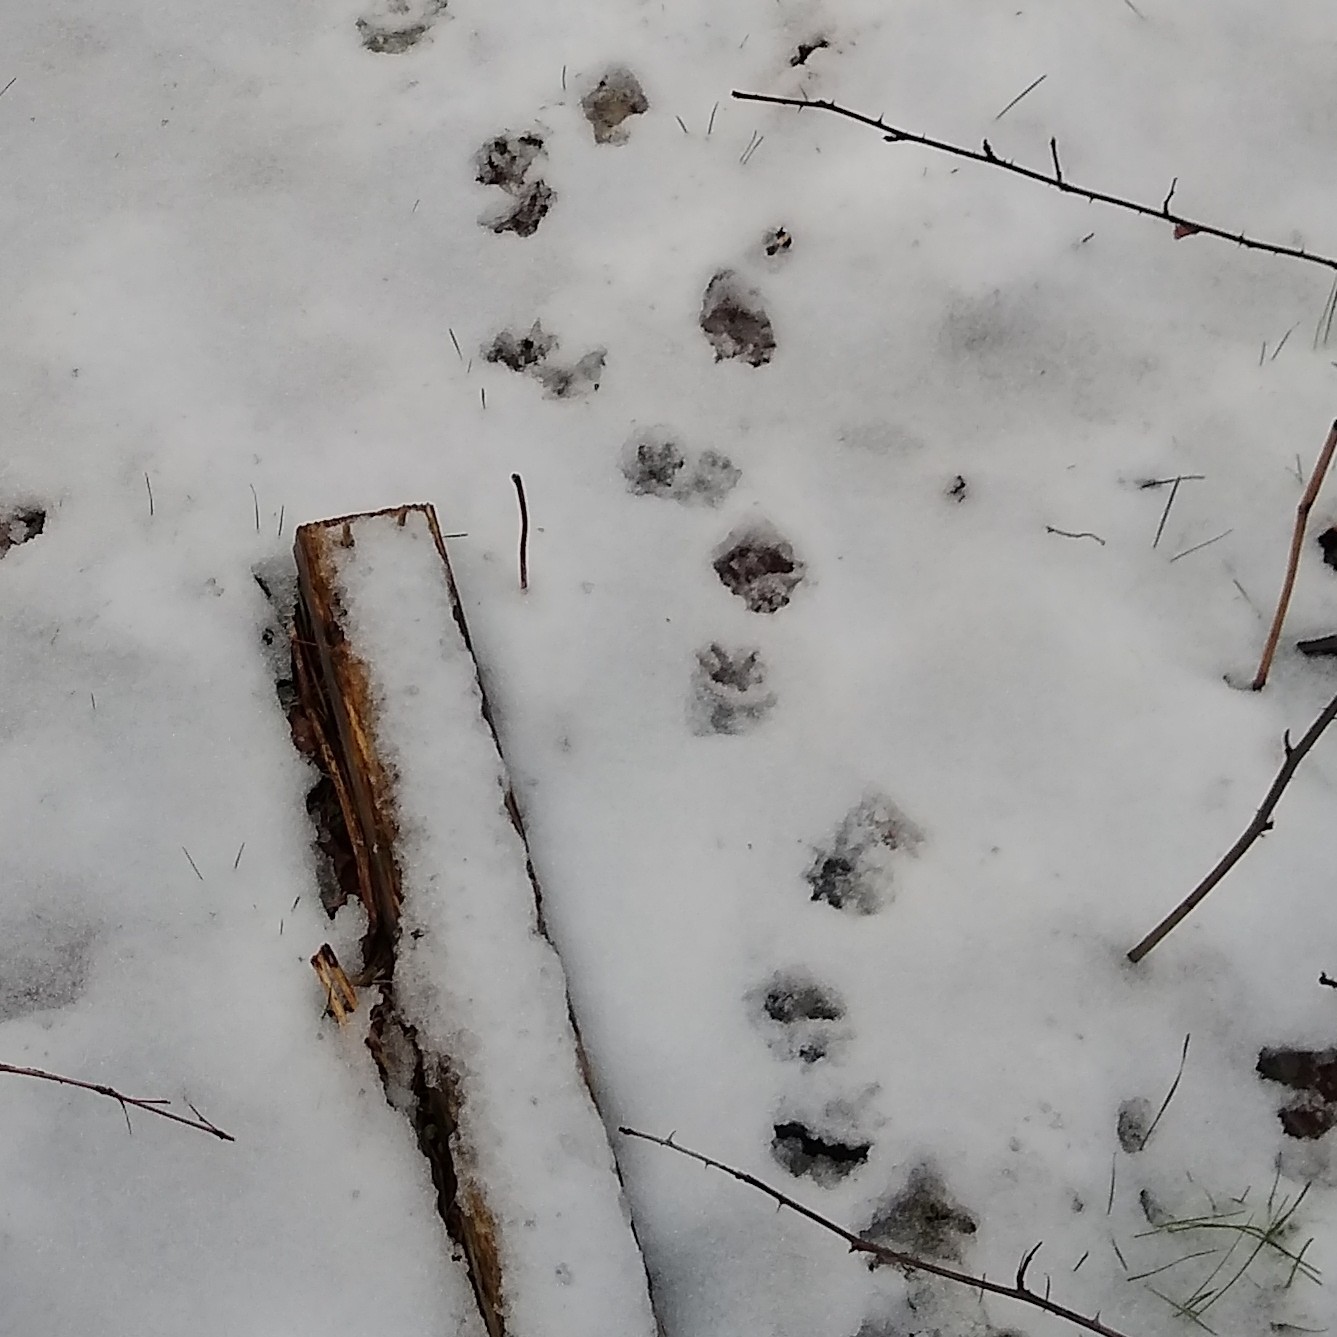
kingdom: Animalia
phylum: Chordata
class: Mammalia
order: Didelphimorphia
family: Didelphidae
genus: Didelphis
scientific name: Didelphis virginiana
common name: Virginia opossum
